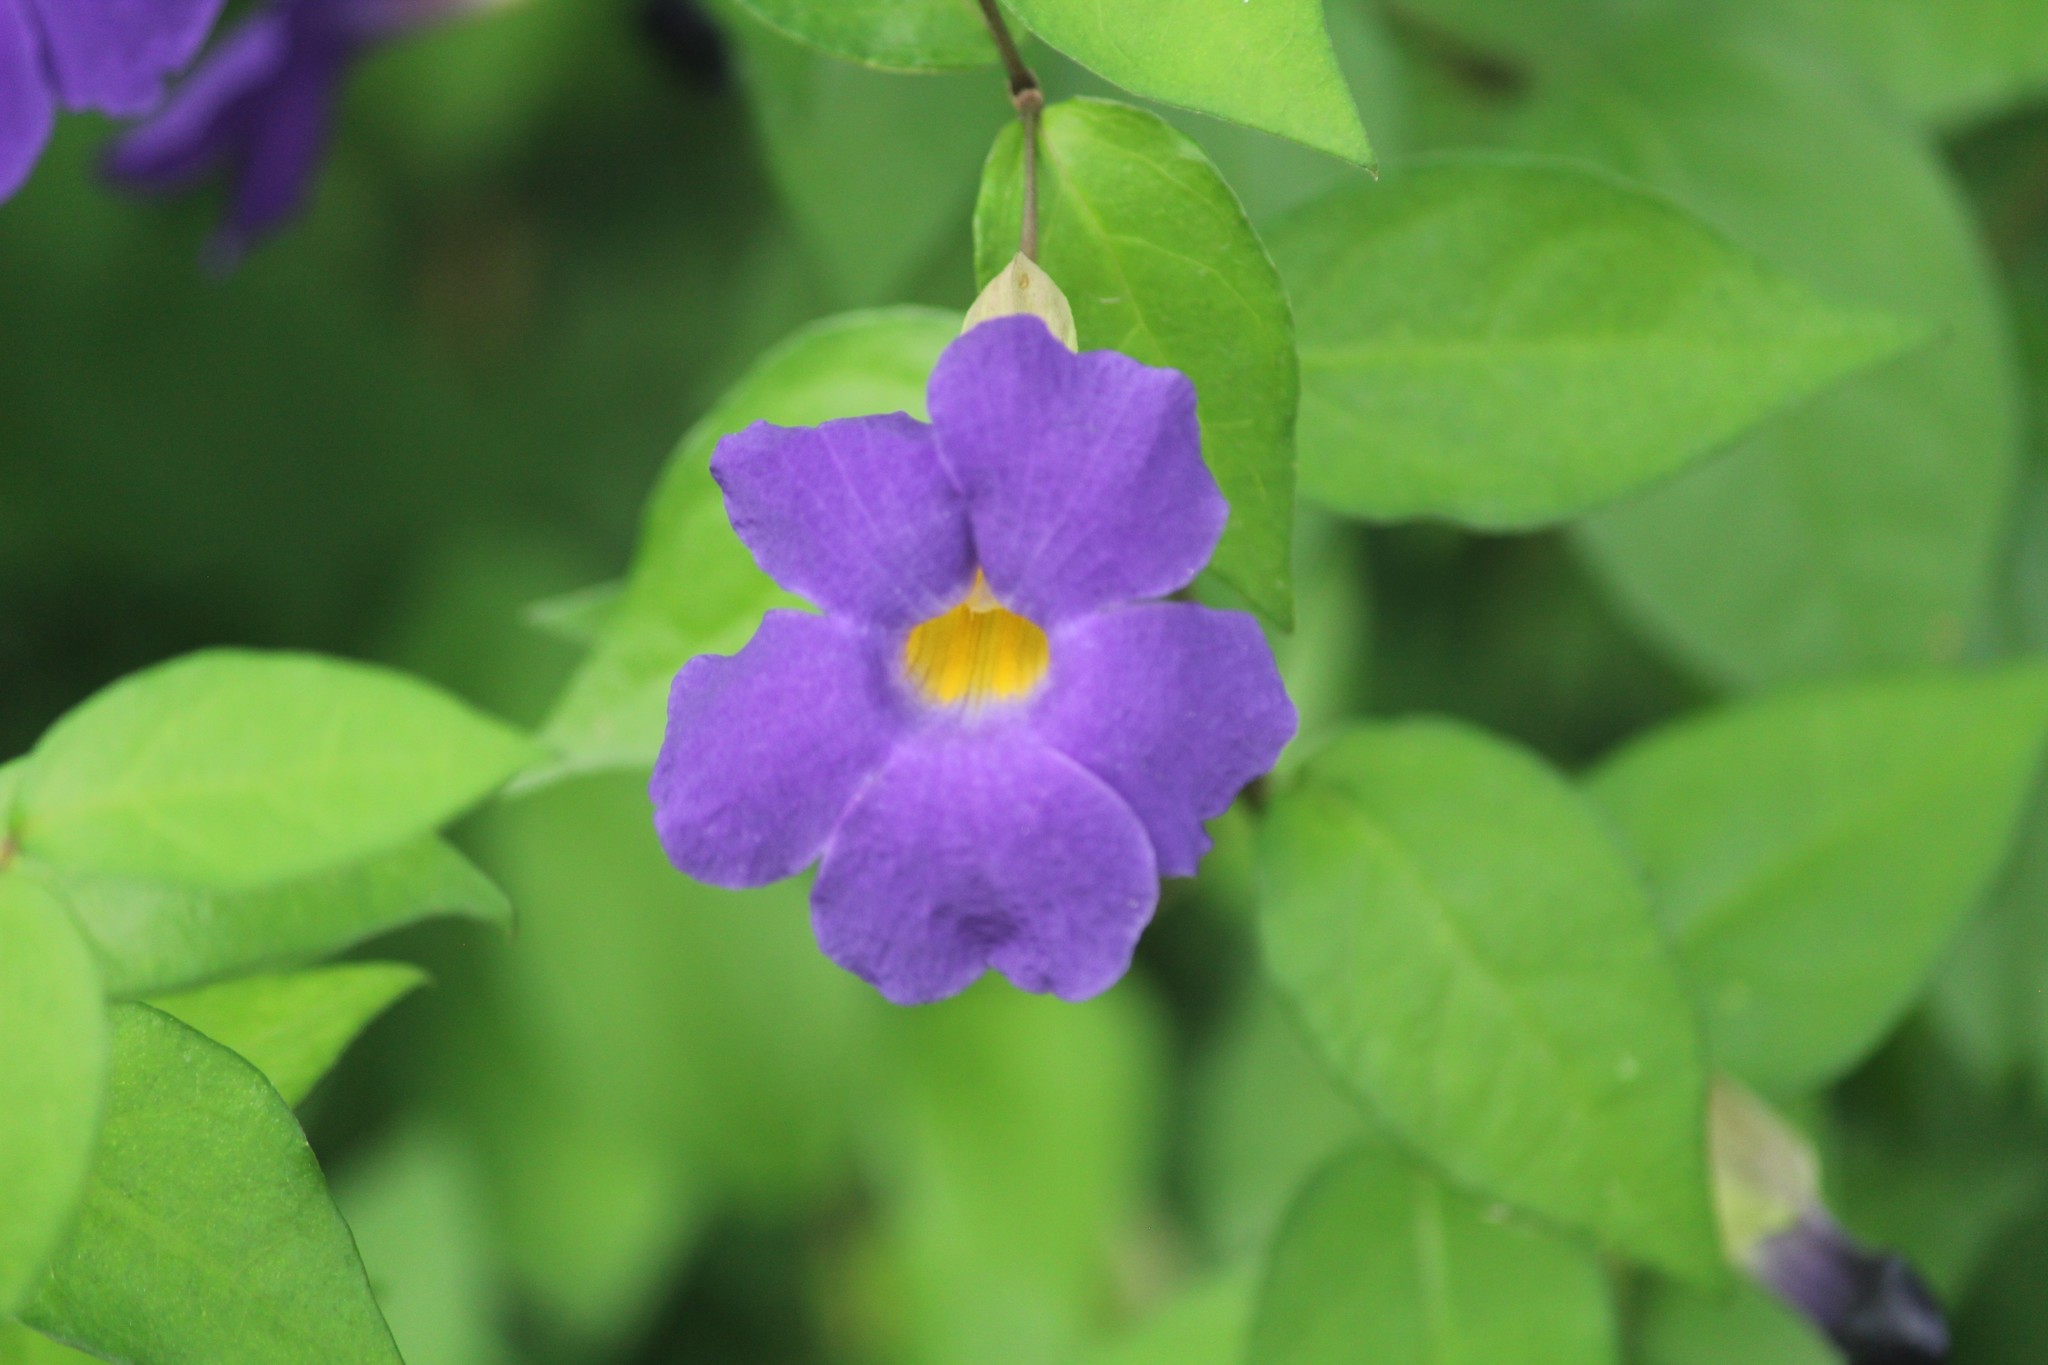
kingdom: Plantae
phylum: Tracheophyta
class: Magnoliopsida
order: Lamiales
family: Acanthaceae
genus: Thunbergia
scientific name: Thunbergia erecta
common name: Bush clockvine
